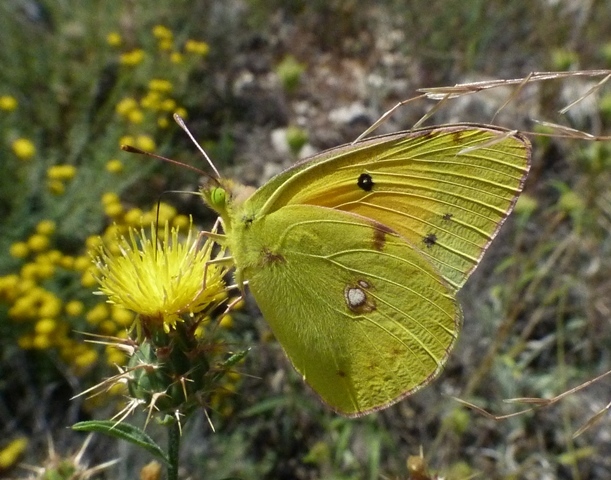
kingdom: Animalia
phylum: Arthropoda
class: Insecta
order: Lepidoptera
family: Pieridae
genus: Colias
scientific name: Colias croceus
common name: Clouded yellow
